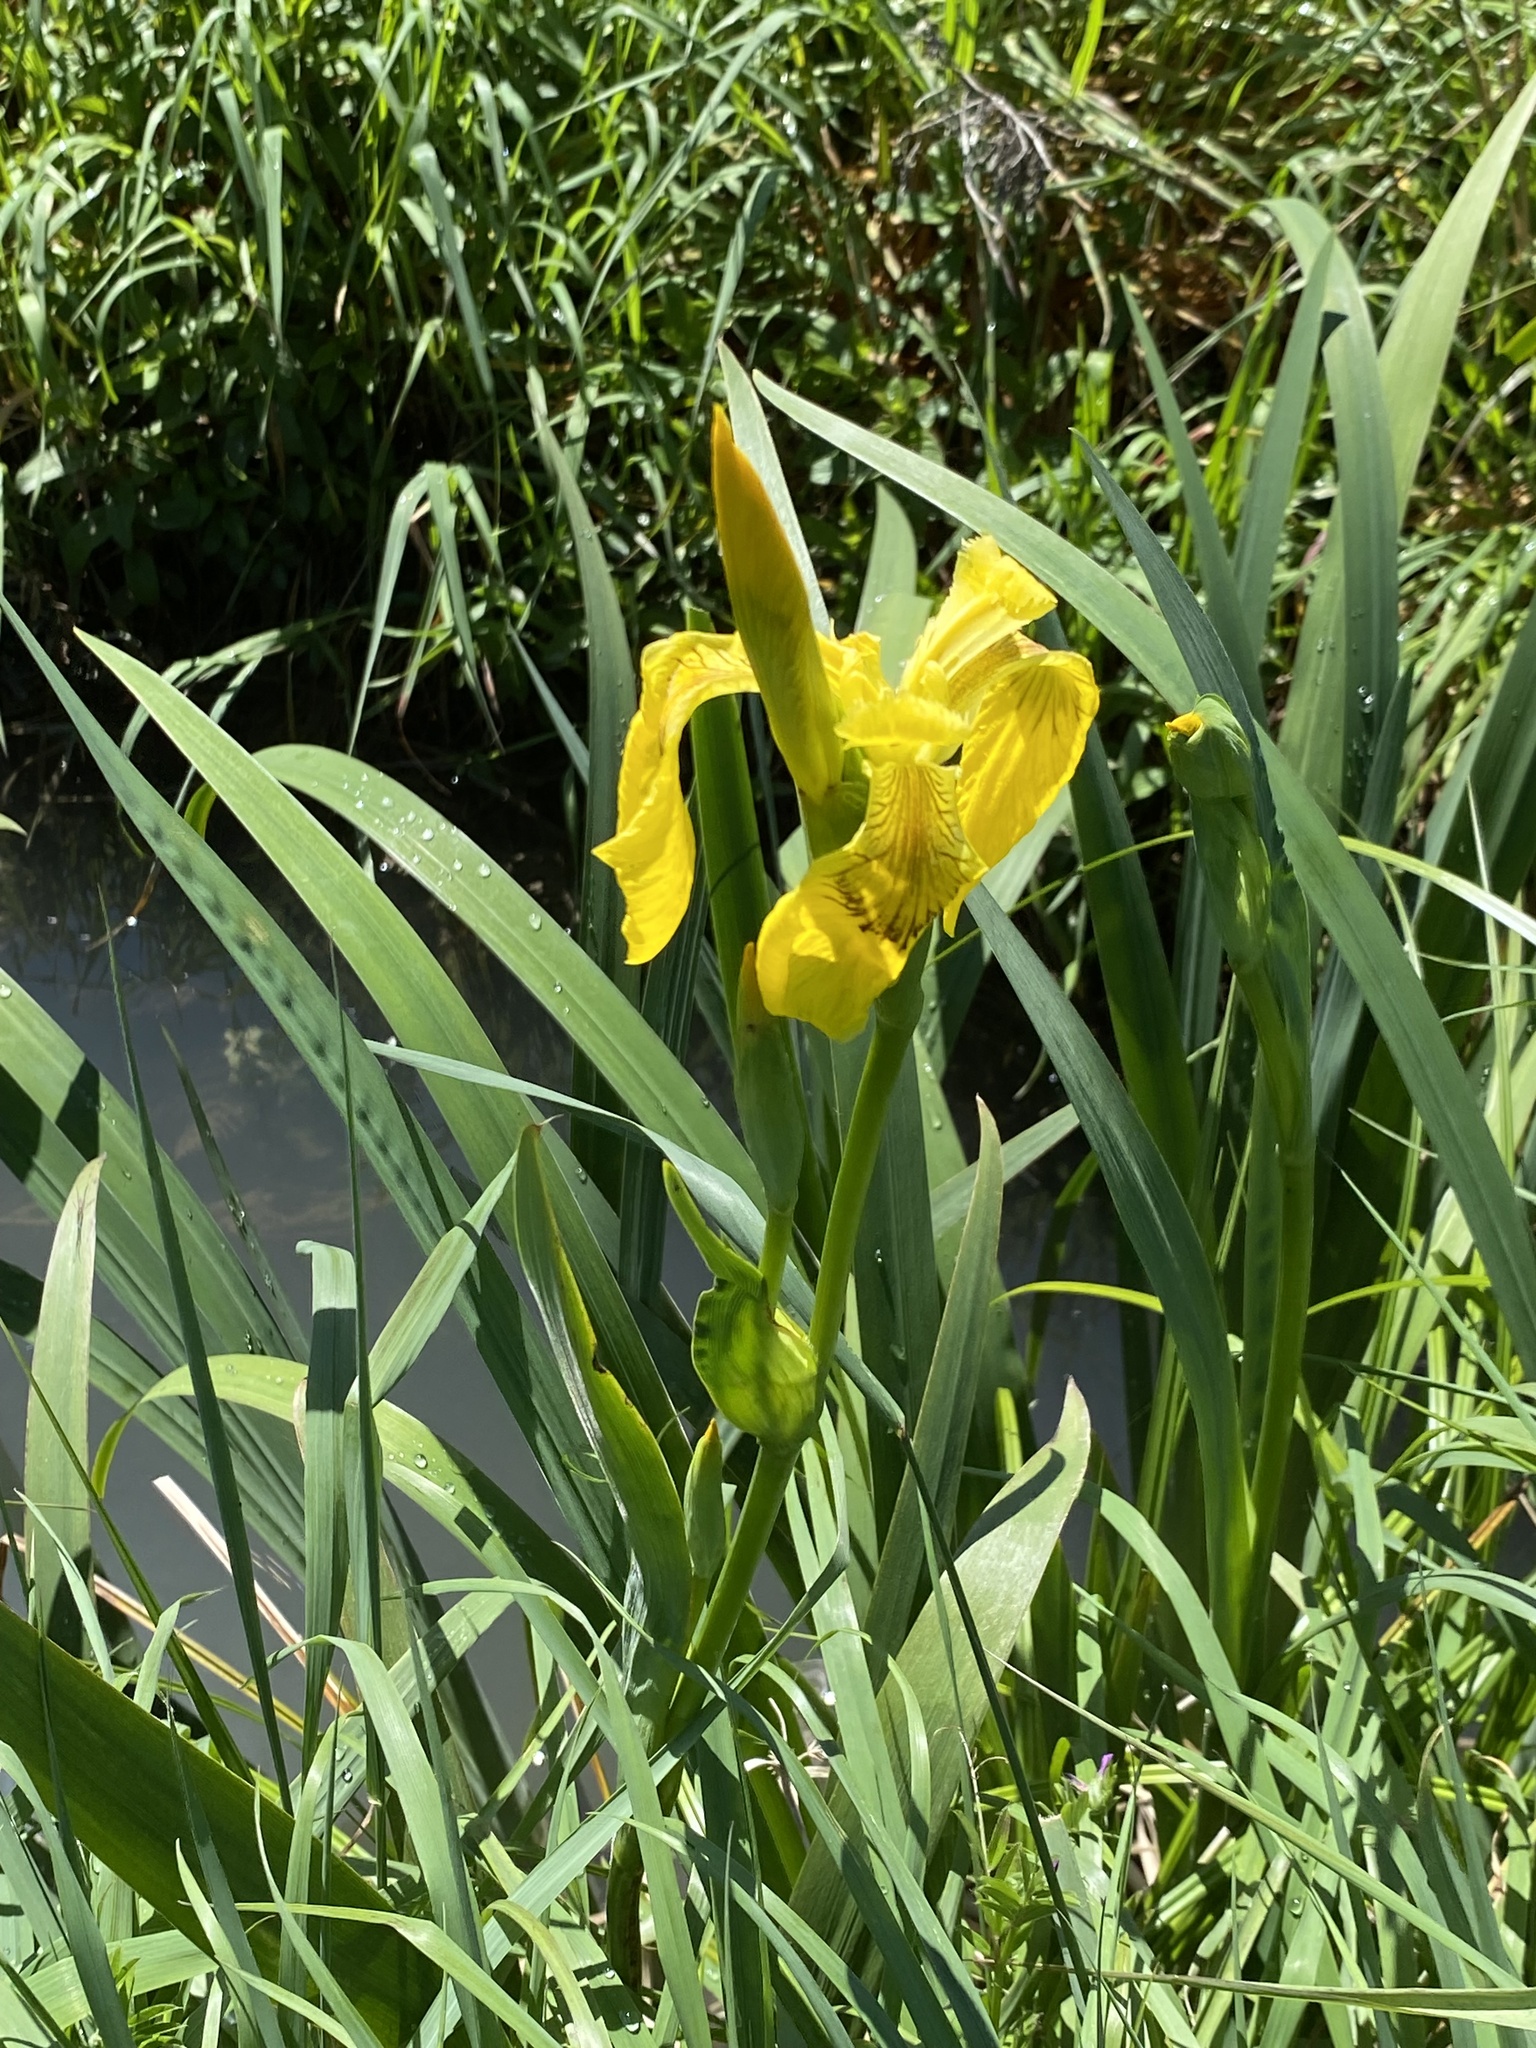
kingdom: Plantae
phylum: Tracheophyta
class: Liliopsida
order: Asparagales
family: Iridaceae
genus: Iris
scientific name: Iris pseudacorus
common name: Yellow flag
